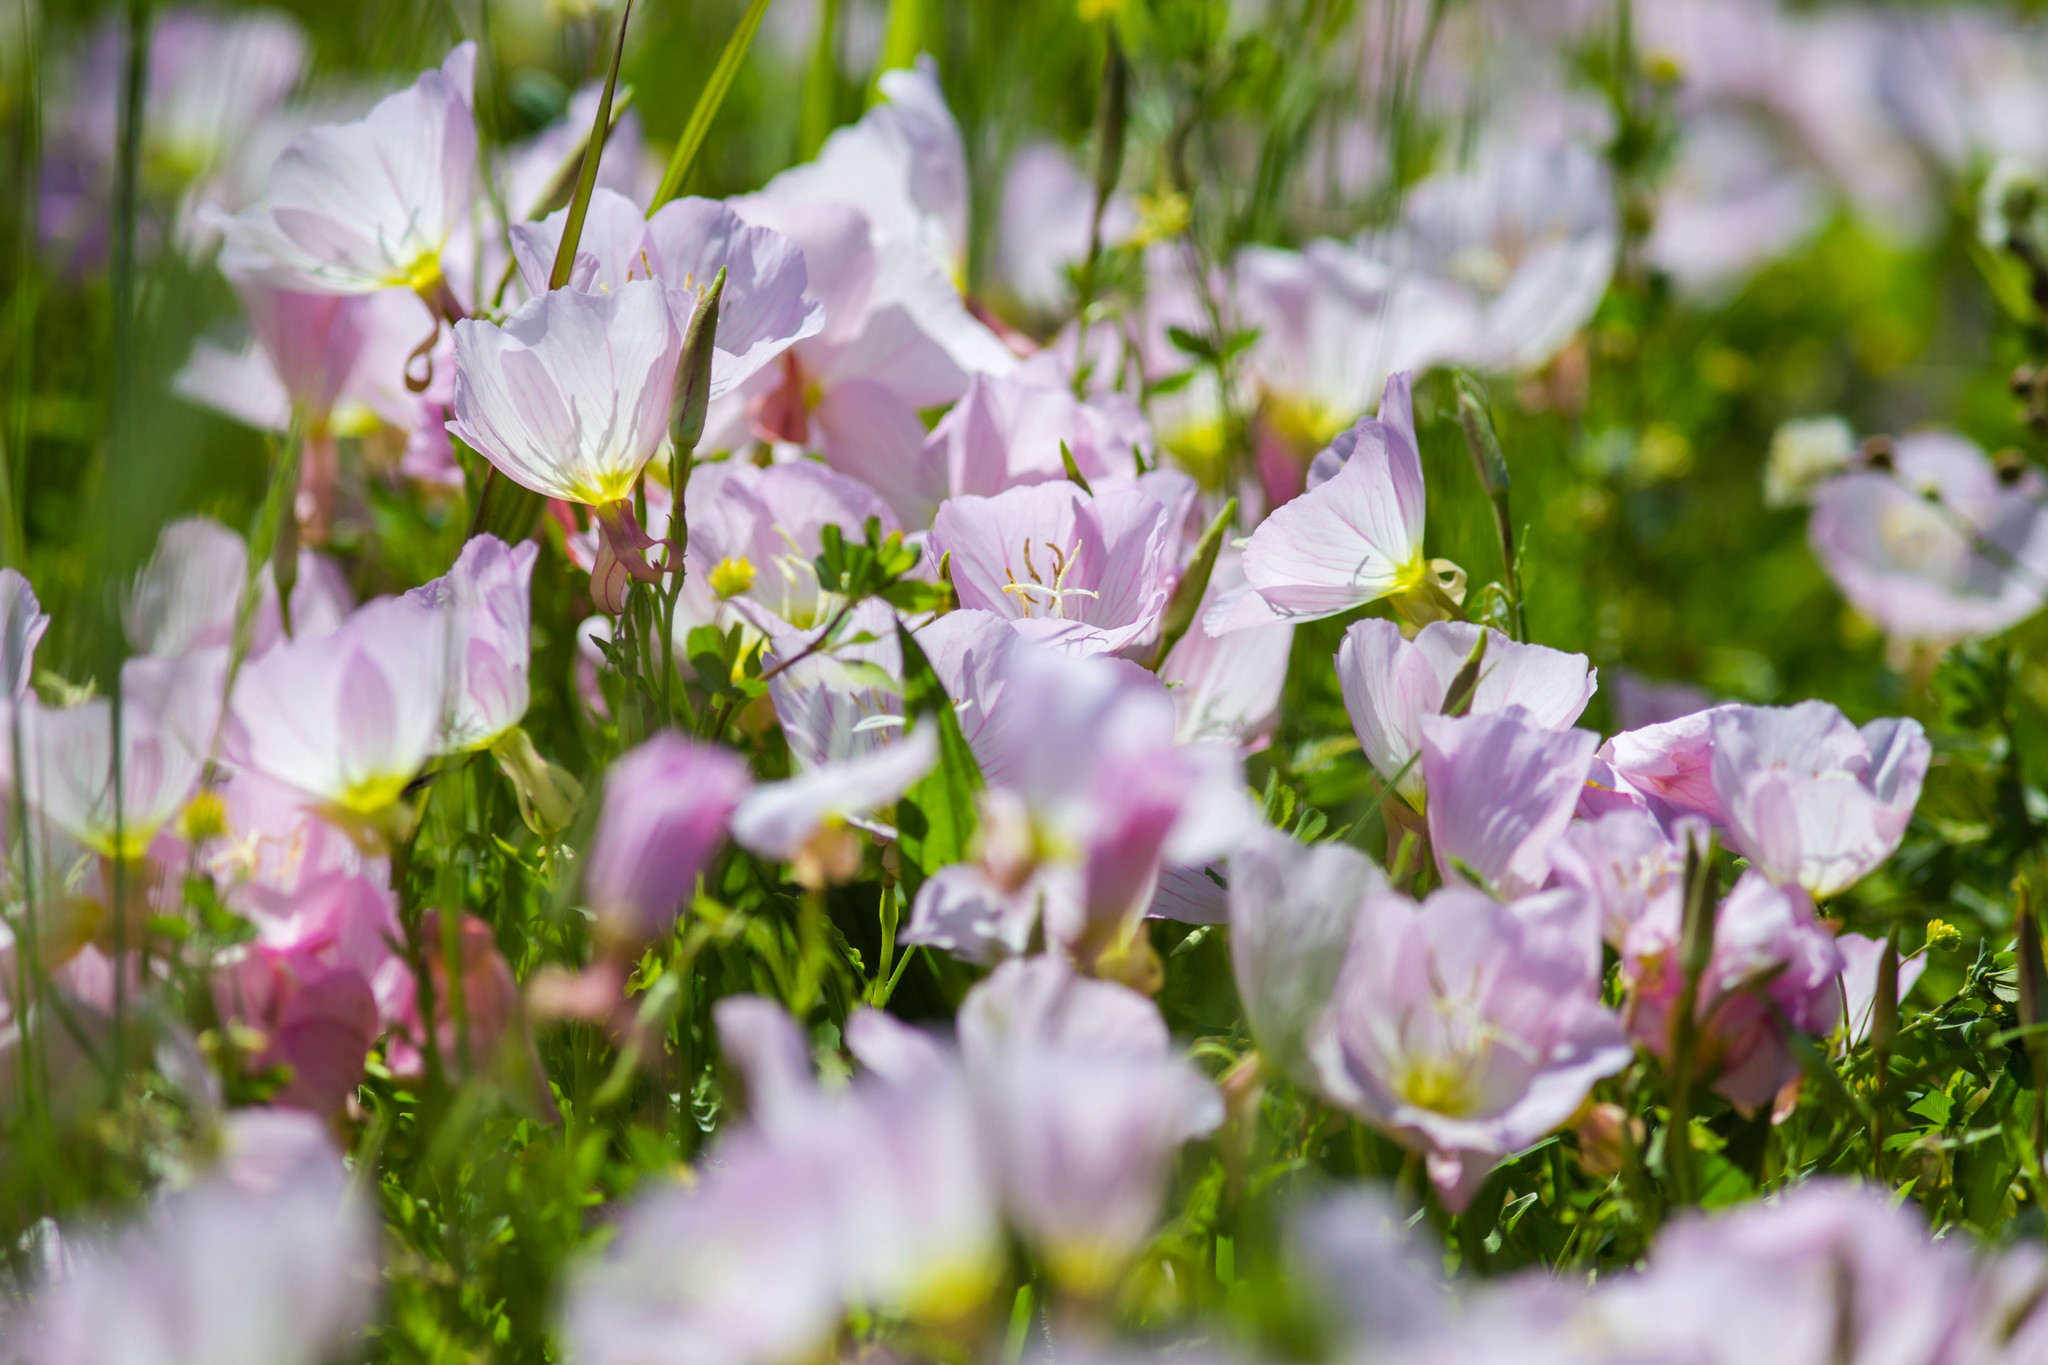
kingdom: Plantae
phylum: Tracheophyta
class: Magnoliopsida
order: Myrtales
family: Onagraceae
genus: Oenothera
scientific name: Oenothera speciosa
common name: White evening-primrose
